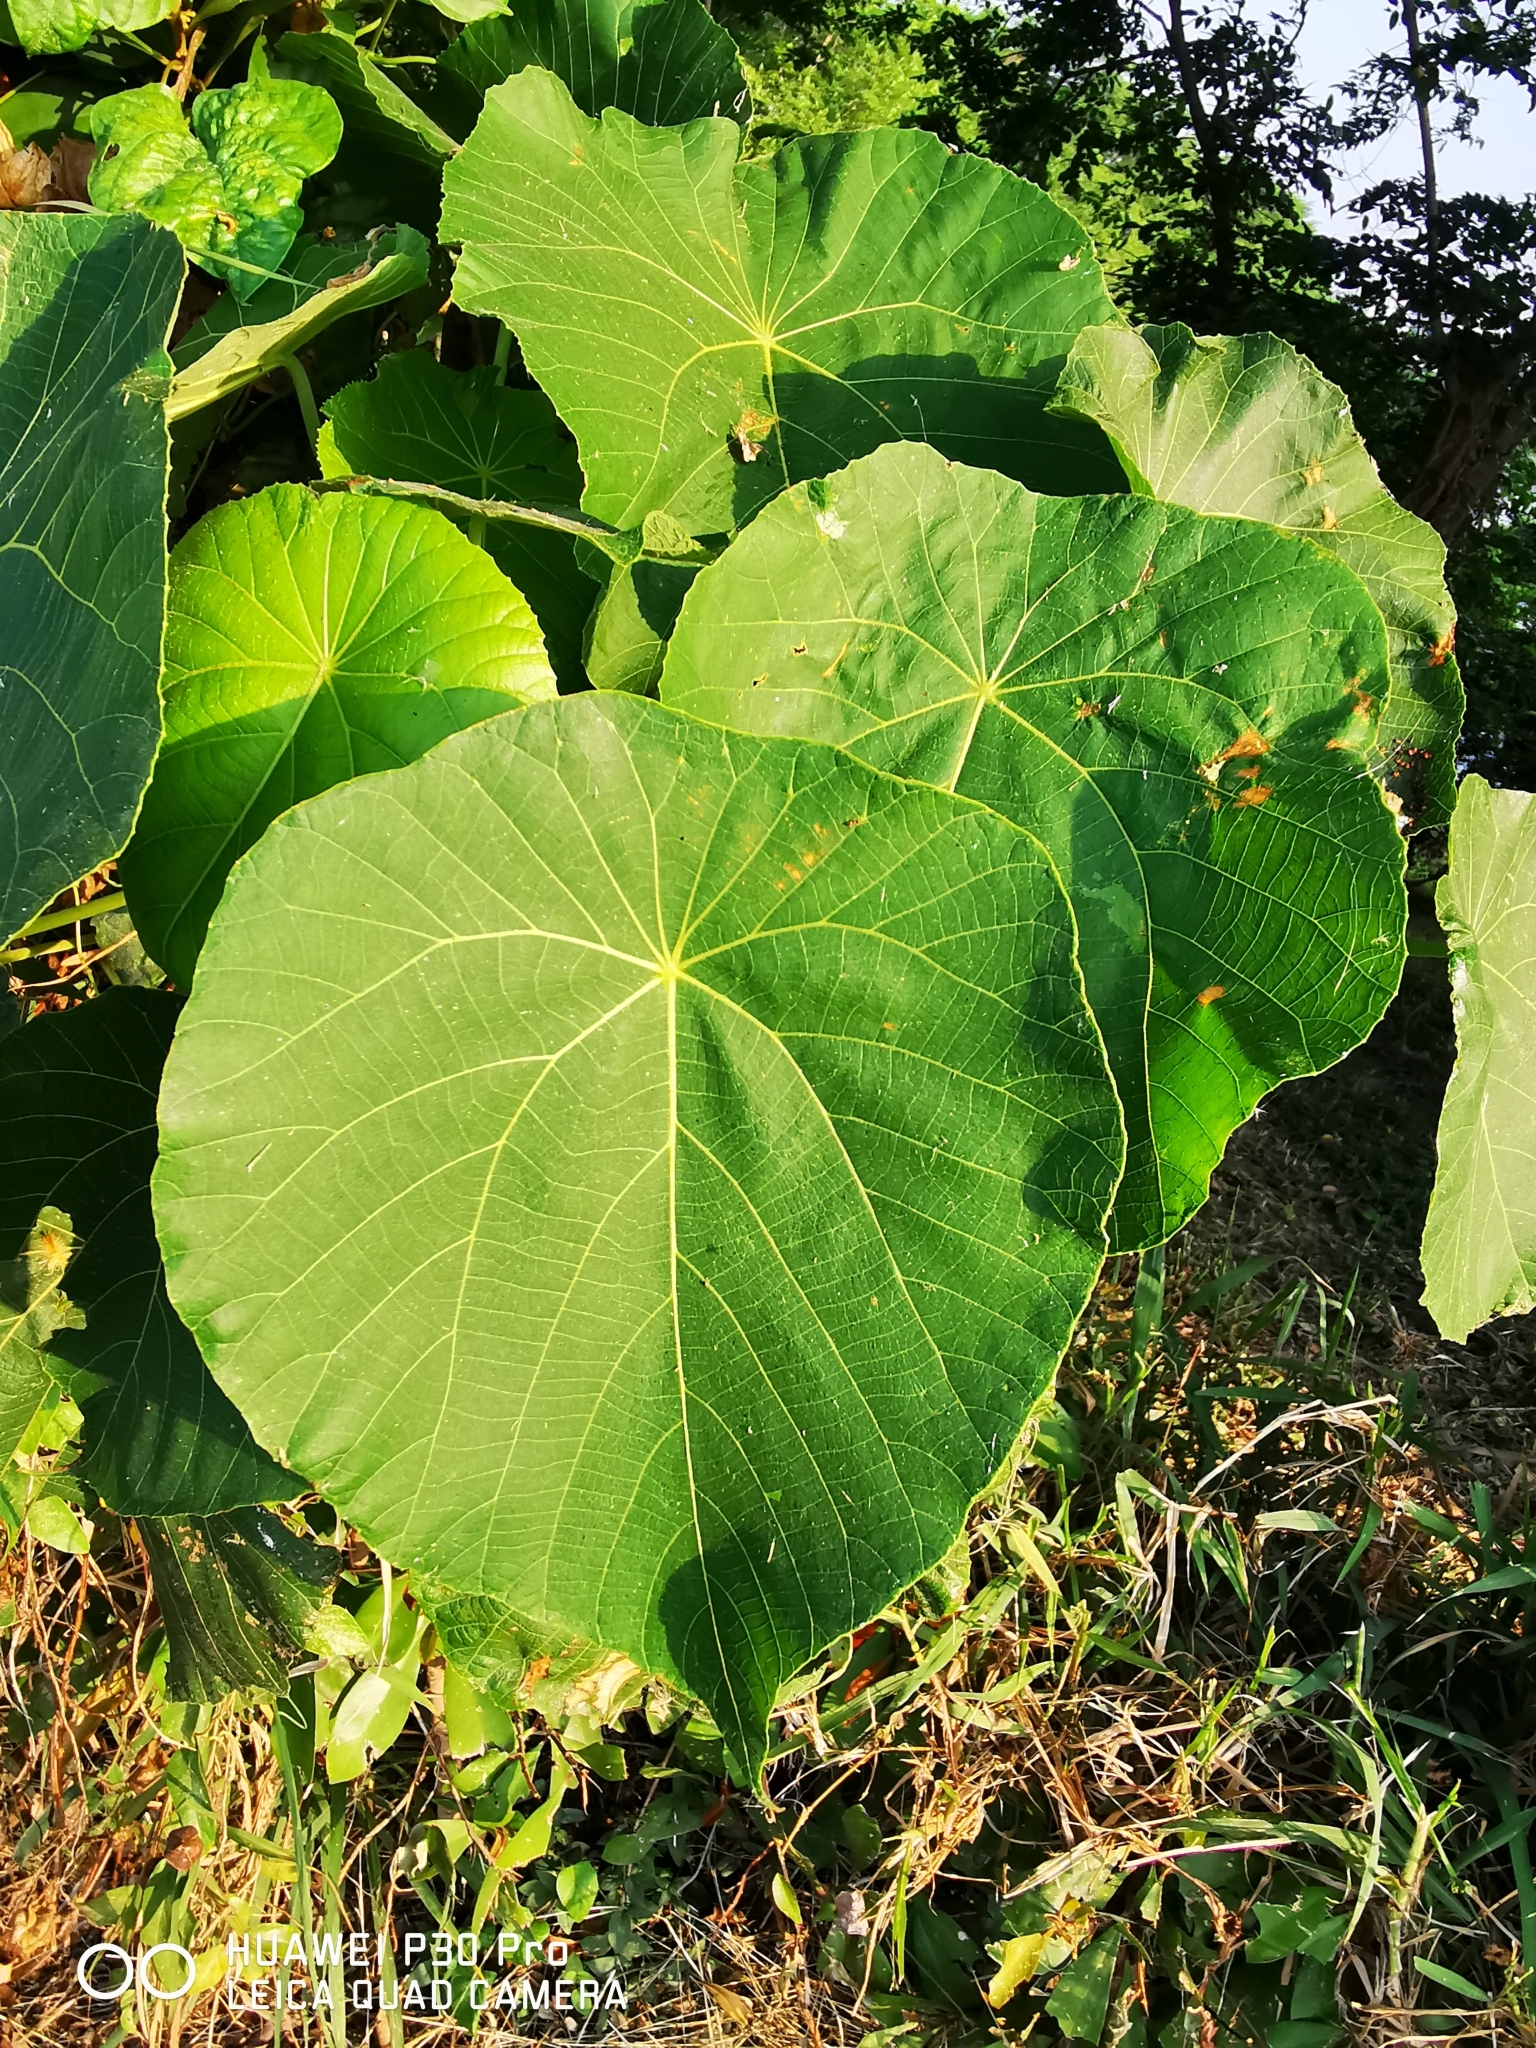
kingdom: Plantae
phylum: Tracheophyta
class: Magnoliopsida
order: Malpighiales
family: Euphorbiaceae
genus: Macaranga
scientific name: Macaranga tanarius
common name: Parasol leaf tree
